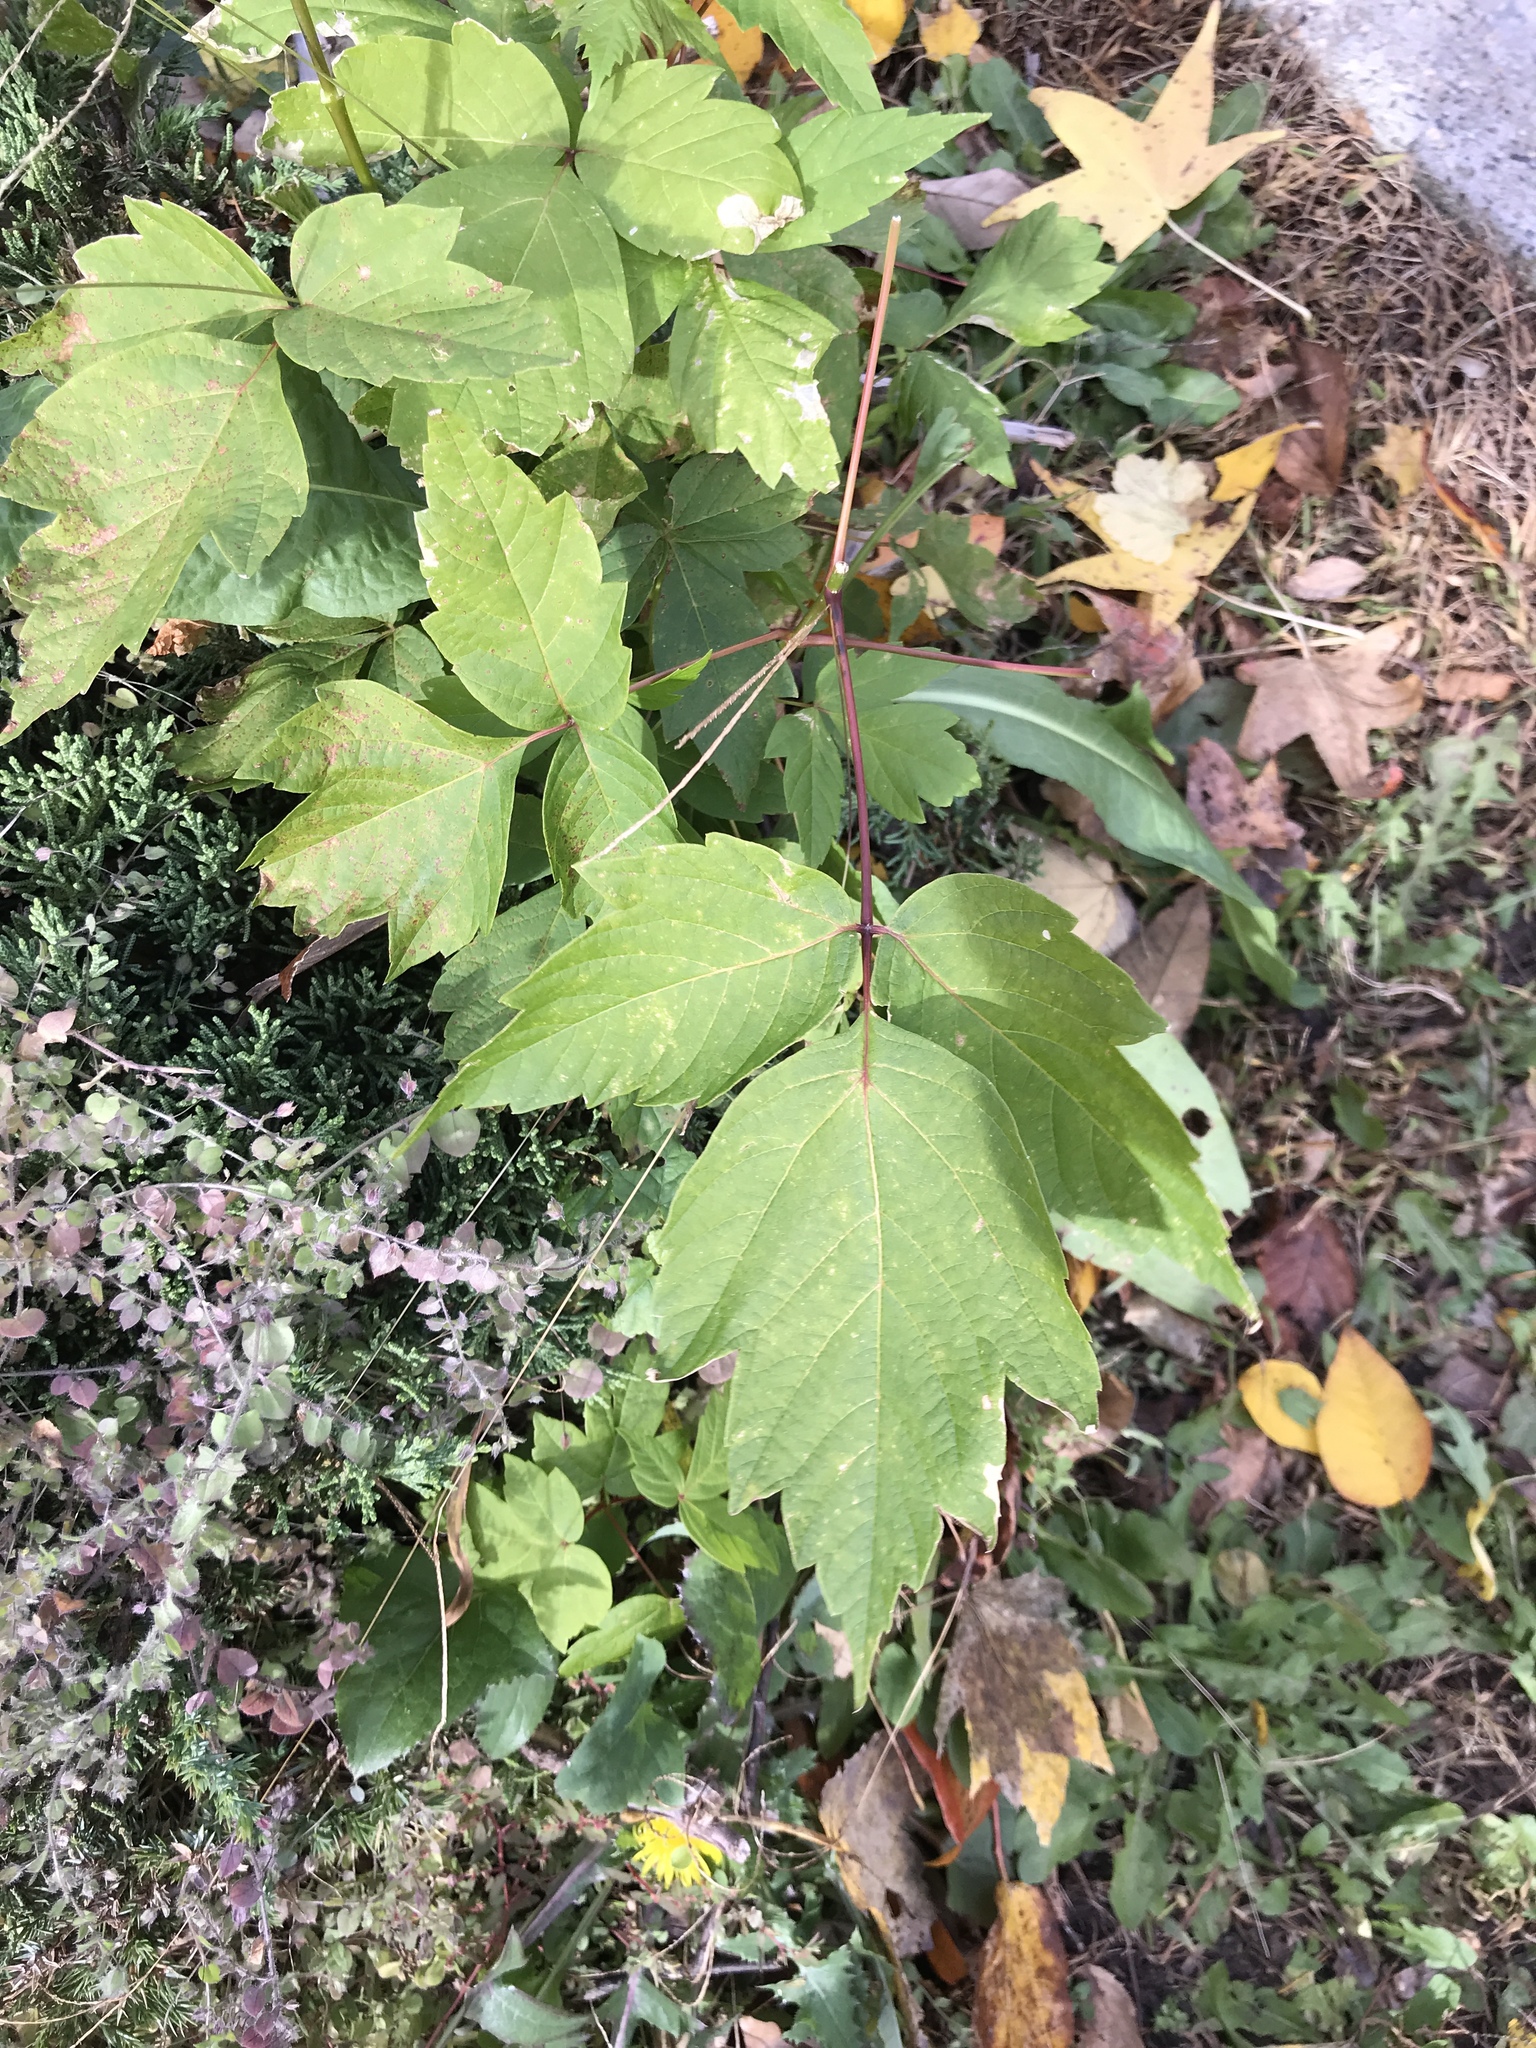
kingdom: Plantae
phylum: Tracheophyta
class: Magnoliopsida
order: Sapindales
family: Sapindaceae
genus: Acer
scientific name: Acer negundo
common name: Ashleaf maple
